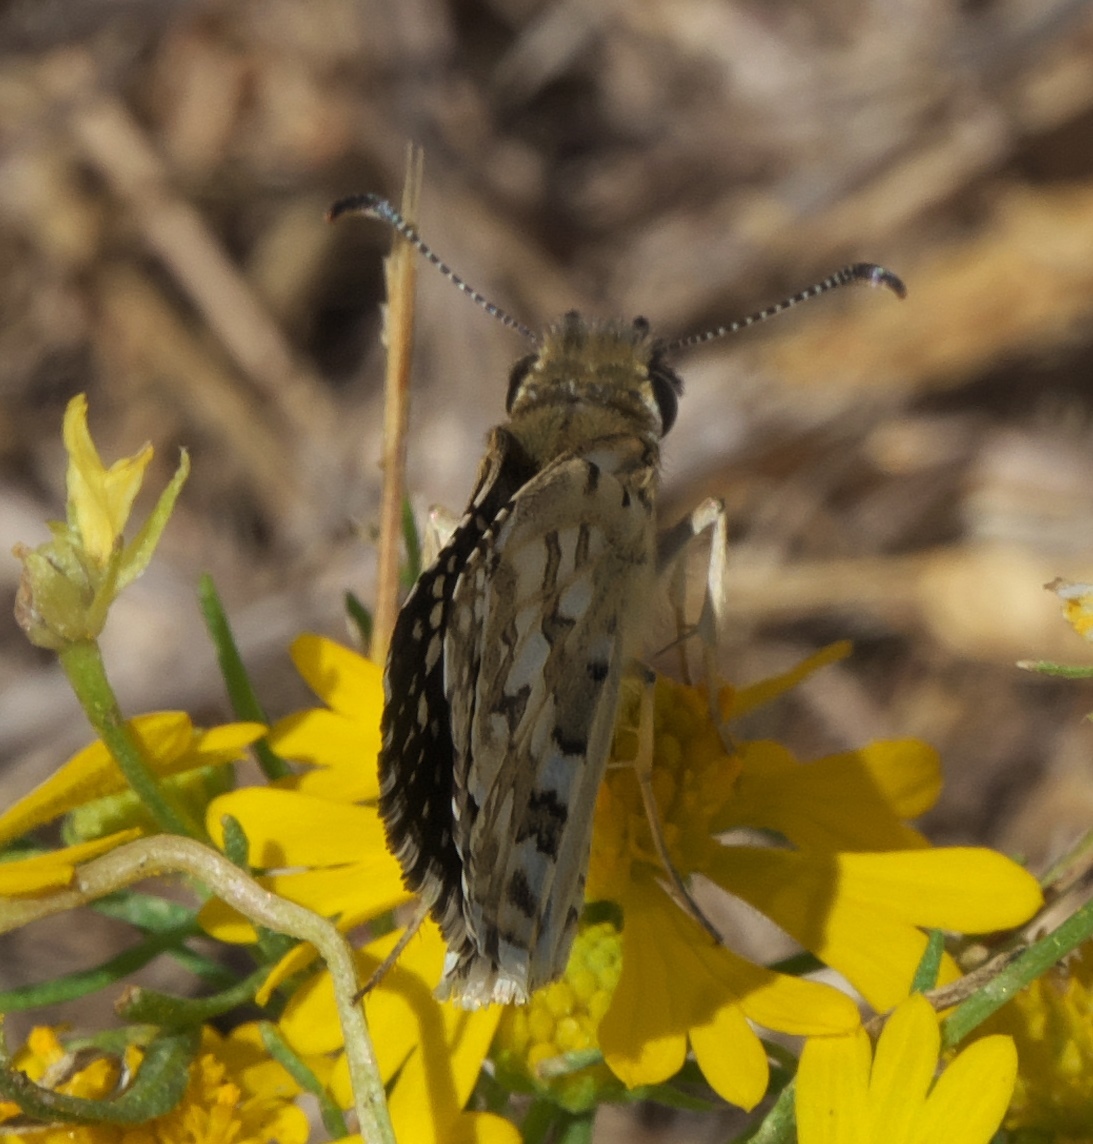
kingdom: Animalia
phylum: Arthropoda
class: Insecta
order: Lepidoptera
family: Hesperiidae
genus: Burnsius
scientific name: Burnsius communis
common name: Common checkered-skipper
